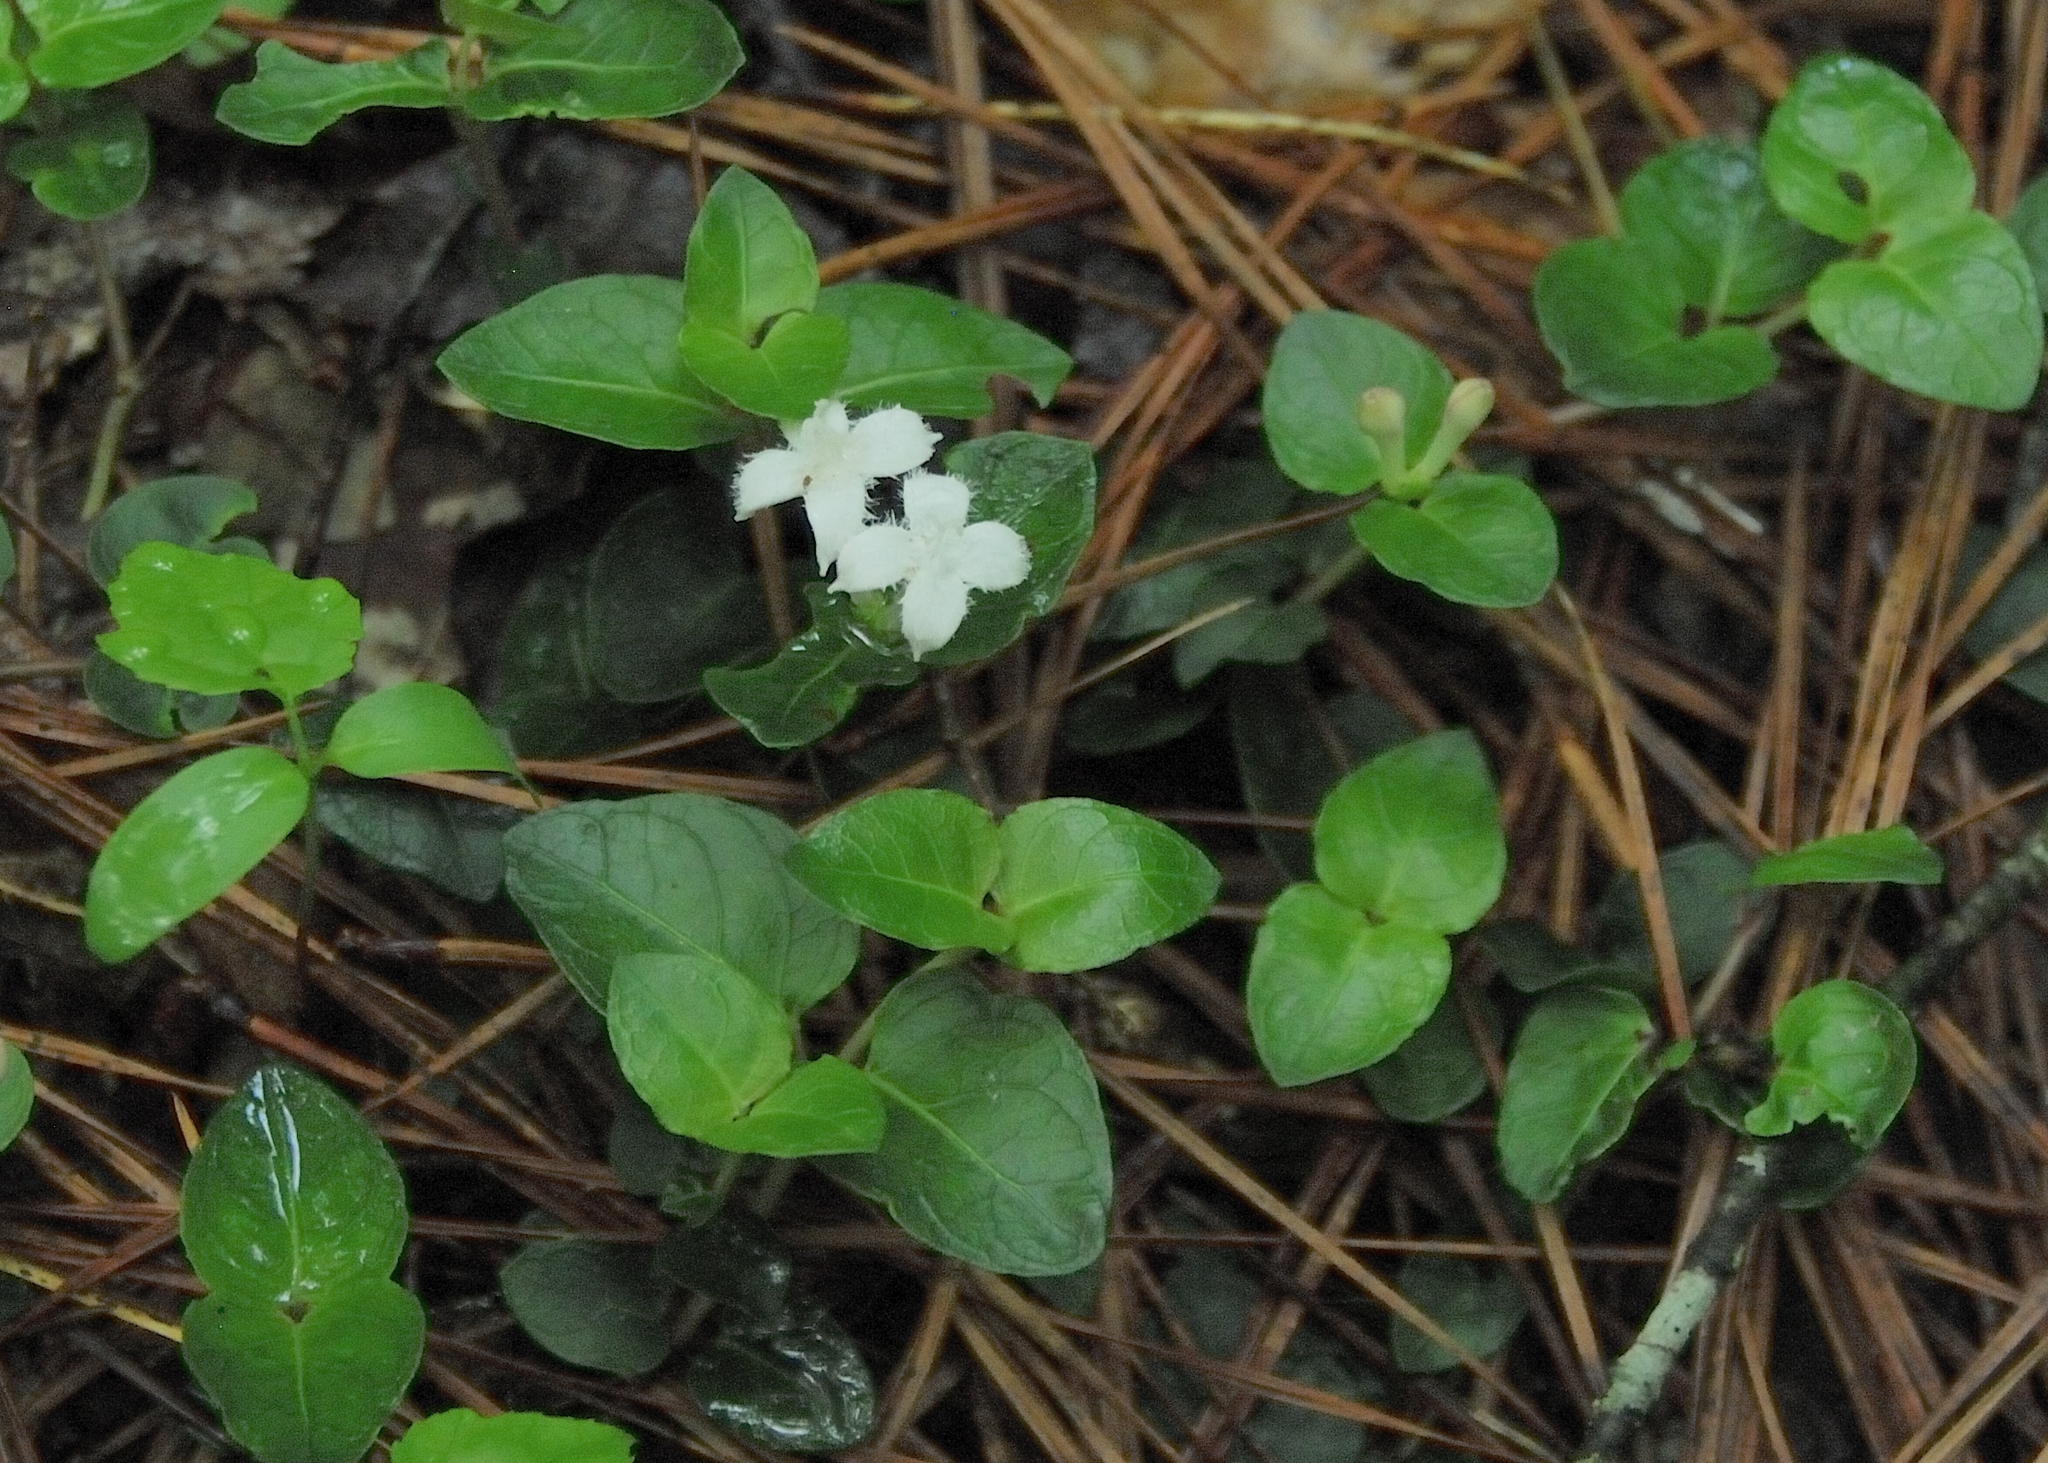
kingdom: Plantae
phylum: Tracheophyta
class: Magnoliopsida
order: Gentianales
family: Rubiaceae
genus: Mitchella
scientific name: Mitchella repens
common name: Partridge-berry
